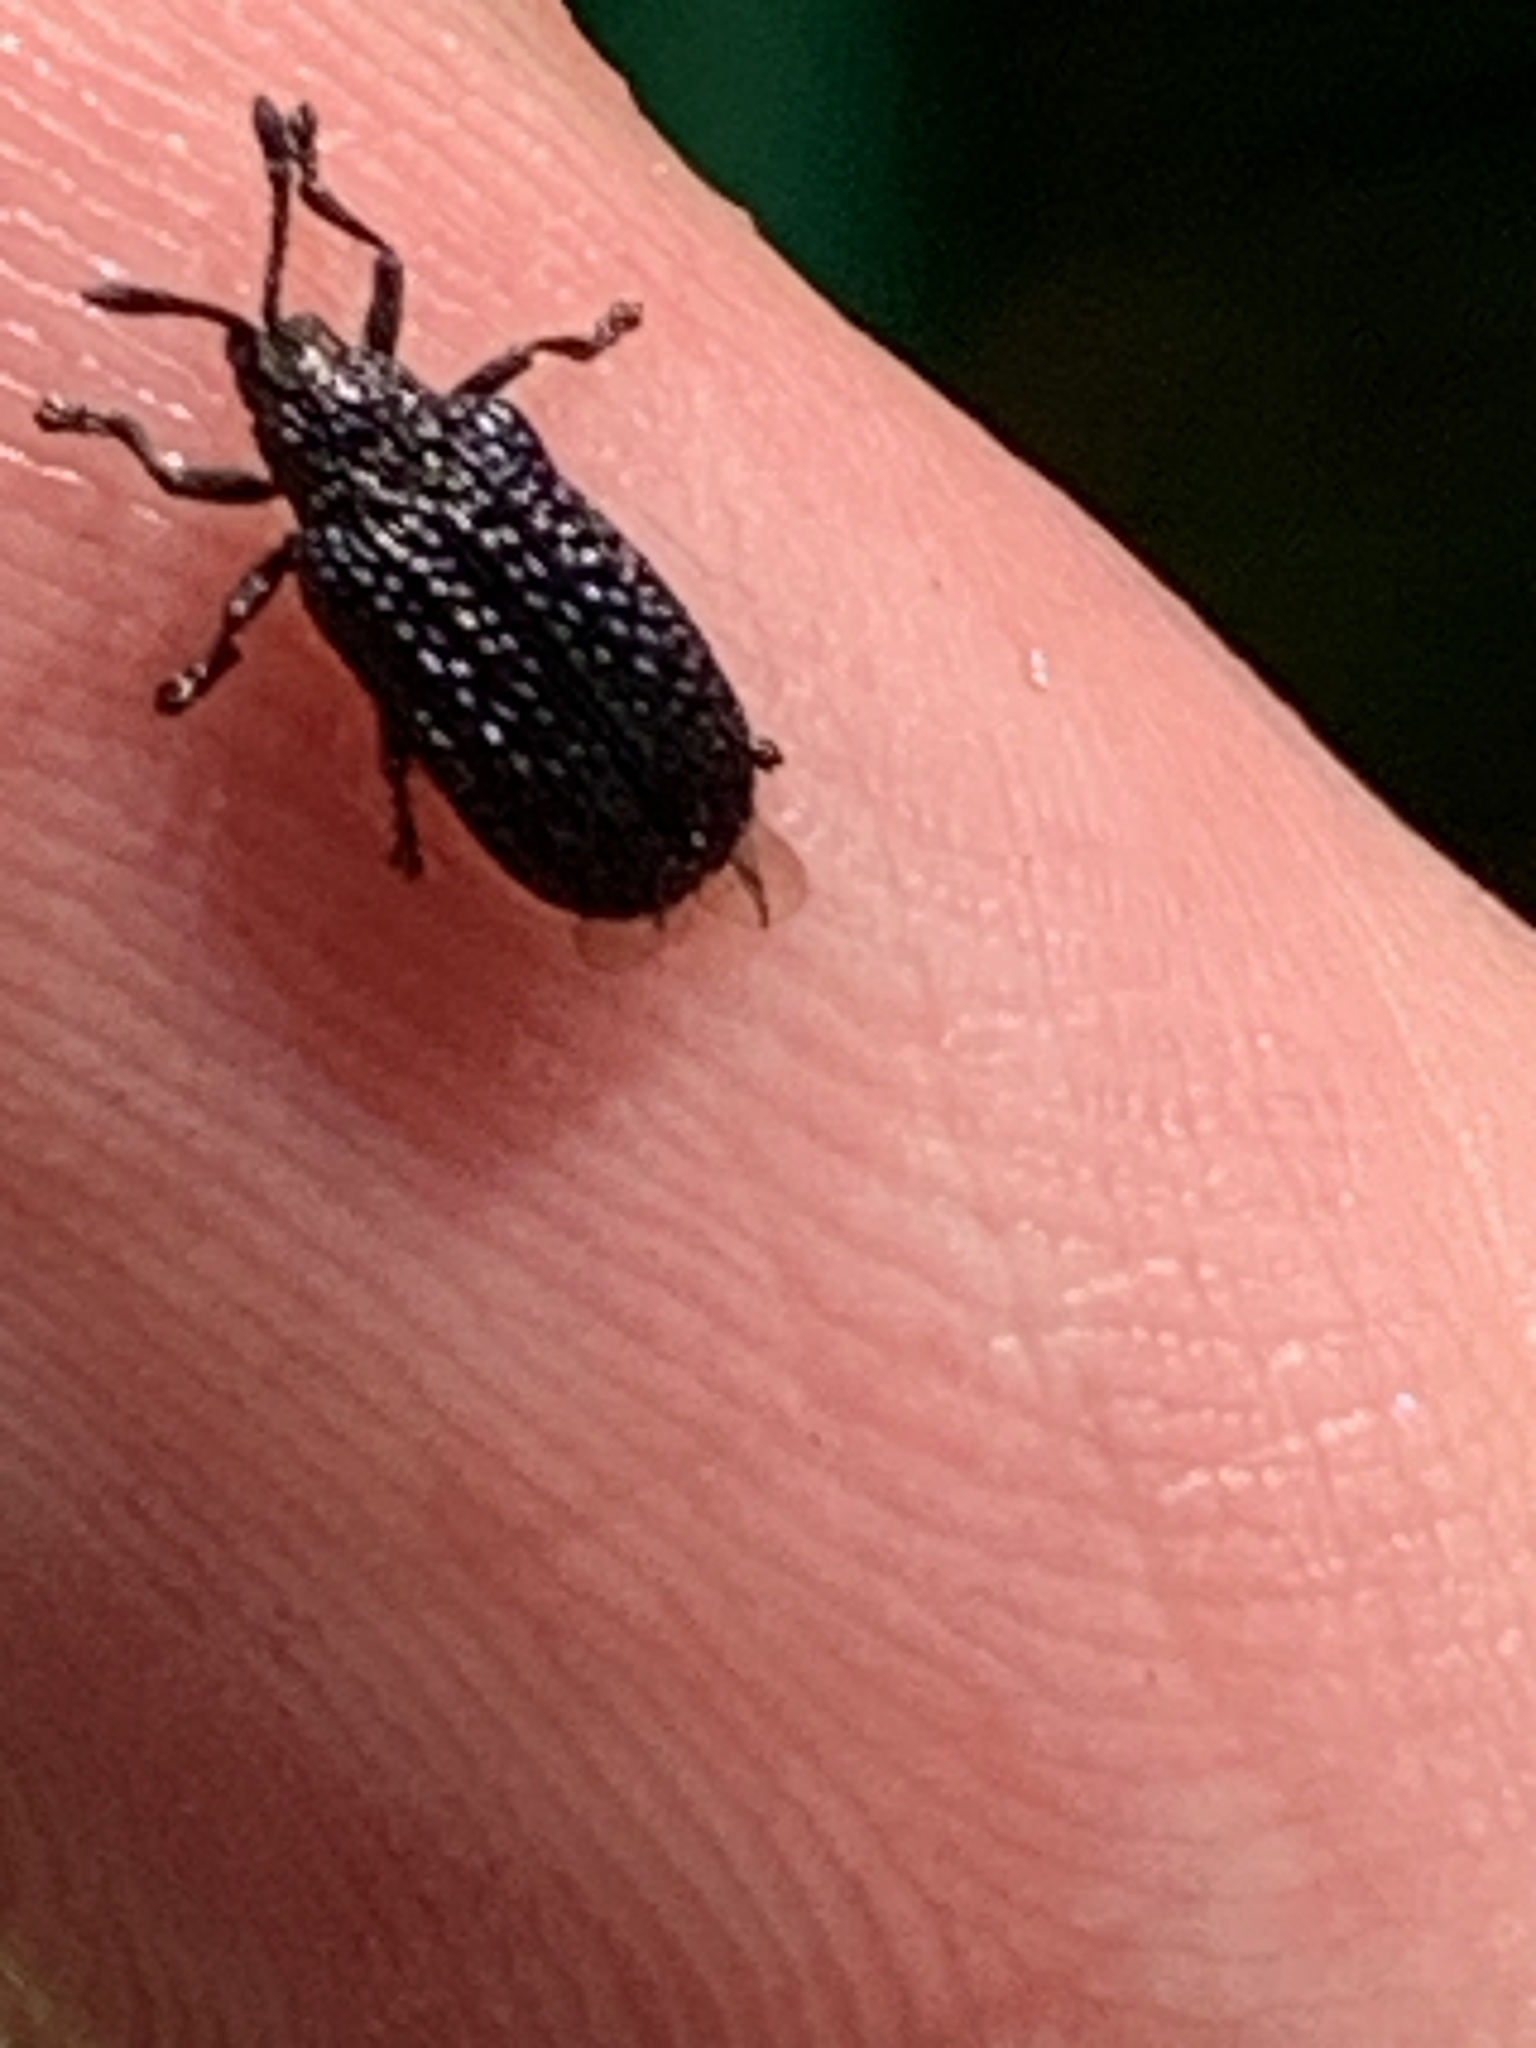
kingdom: Animalia
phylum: Arthropoda
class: Insecta
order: Coleoptera
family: Chrysomelidae
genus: Microrhopala
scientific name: Microrhopala excavata
